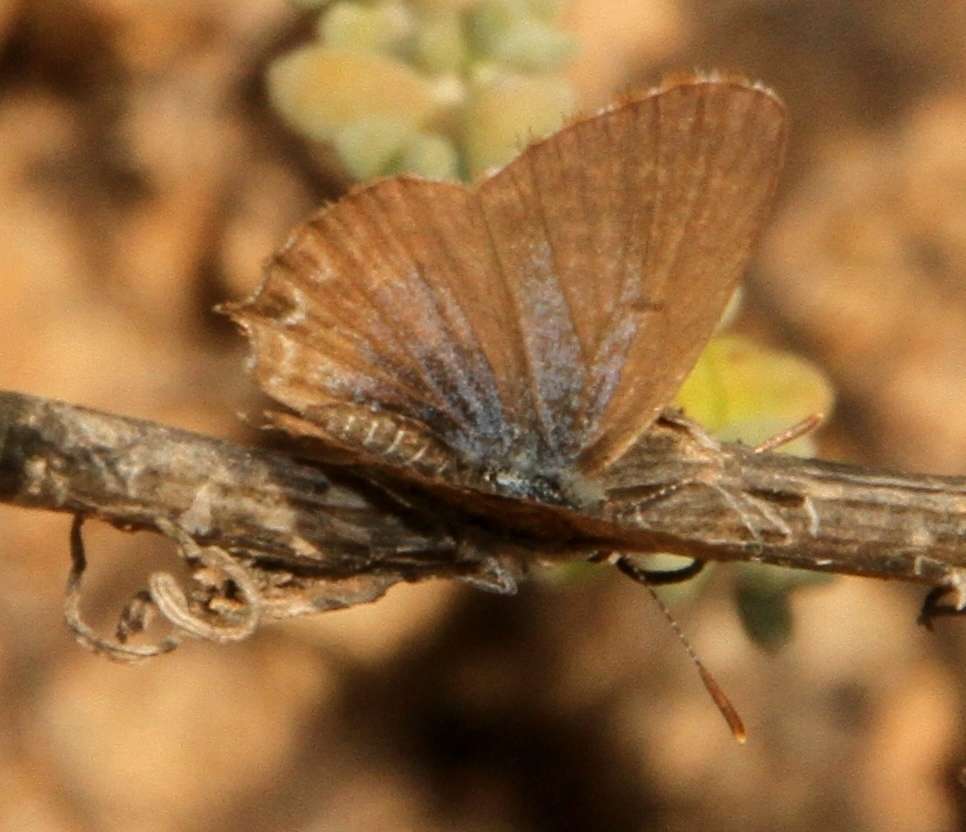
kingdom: Animalia
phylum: Arthropoda
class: Insecta
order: Lepidoptera
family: Lycaenidae
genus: Theclinesthes
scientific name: Theclinesthes serpentata
